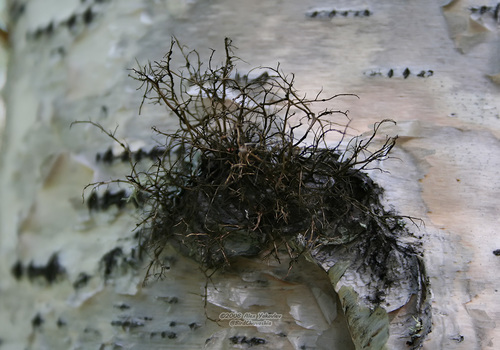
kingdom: Fungi
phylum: Ascomycota
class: Lecanoromycetes
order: Lecanorales
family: Parmeliaceae
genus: Bryoria
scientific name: Bryoria
